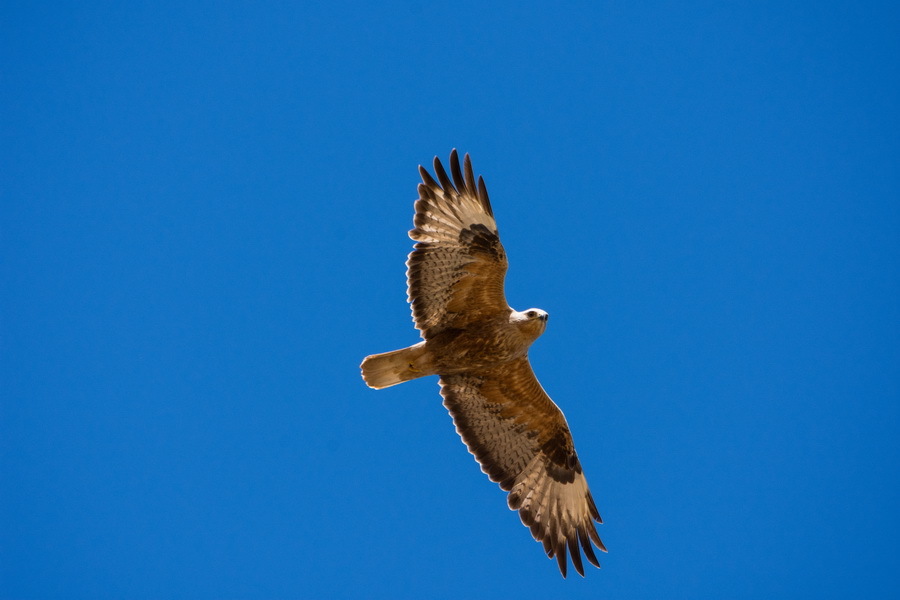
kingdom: Animalia
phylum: Chordata
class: Aves
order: Accipitriformes
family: Accipitridae
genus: Buteo
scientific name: Buteo rufinus
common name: Long-legged buzzard
